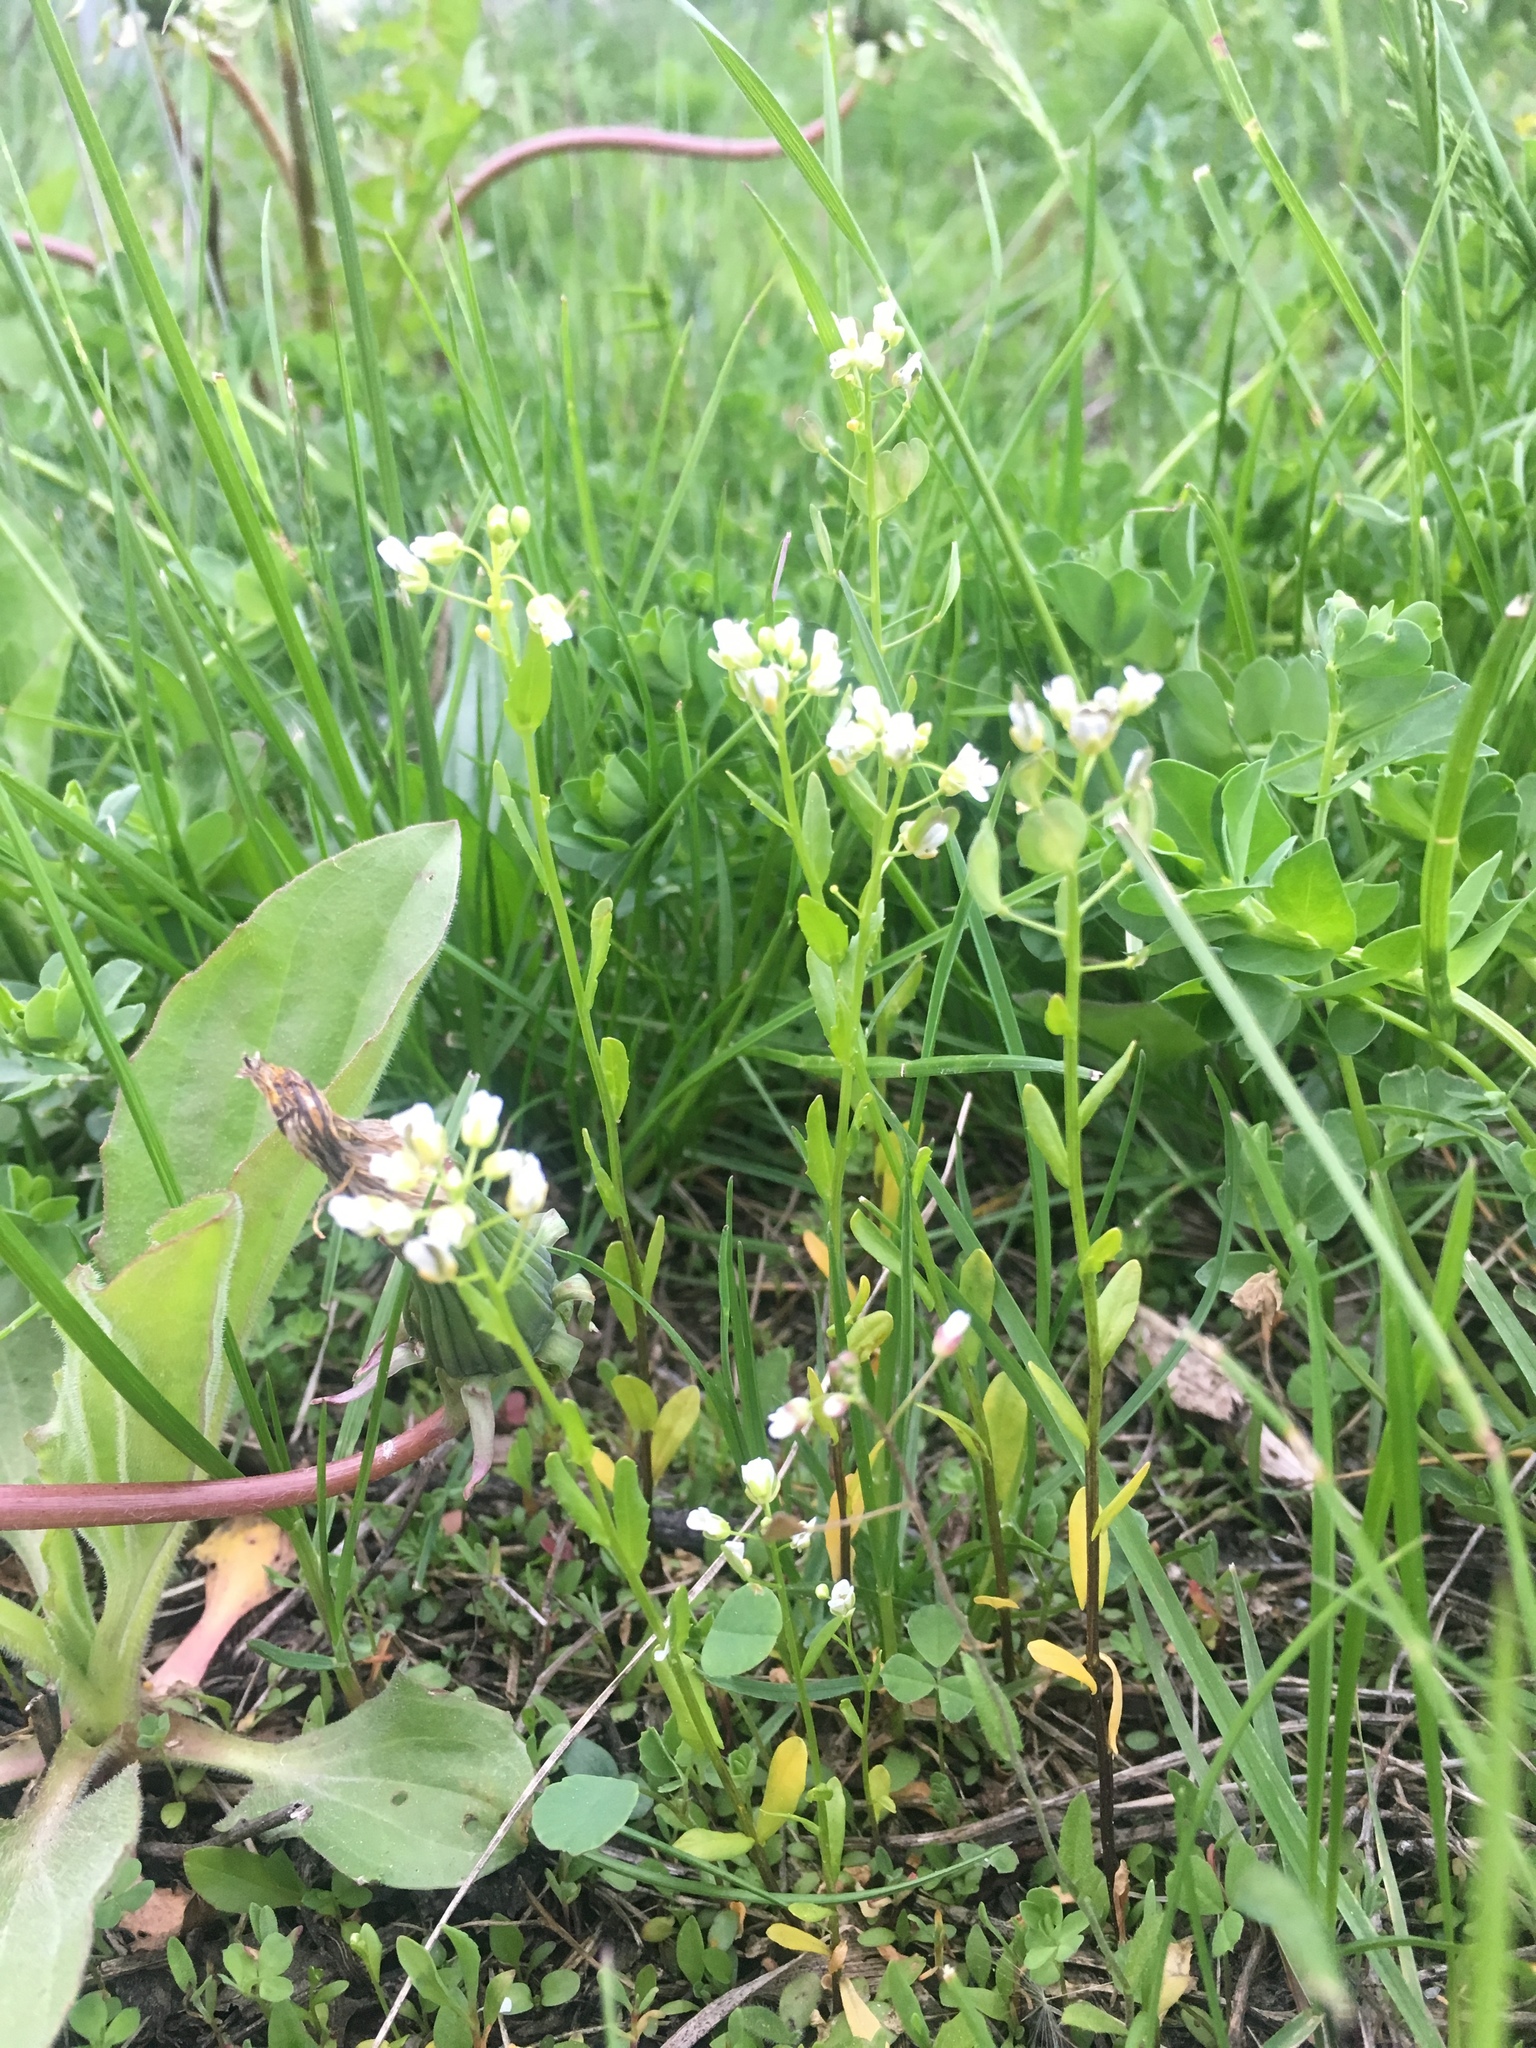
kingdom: Plantae
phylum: Tracheophyta
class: Magnoliopsida
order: Brassicales
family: Brassicaceae
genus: Thlaspi
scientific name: Thlaspi arvense
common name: Field pennycress
